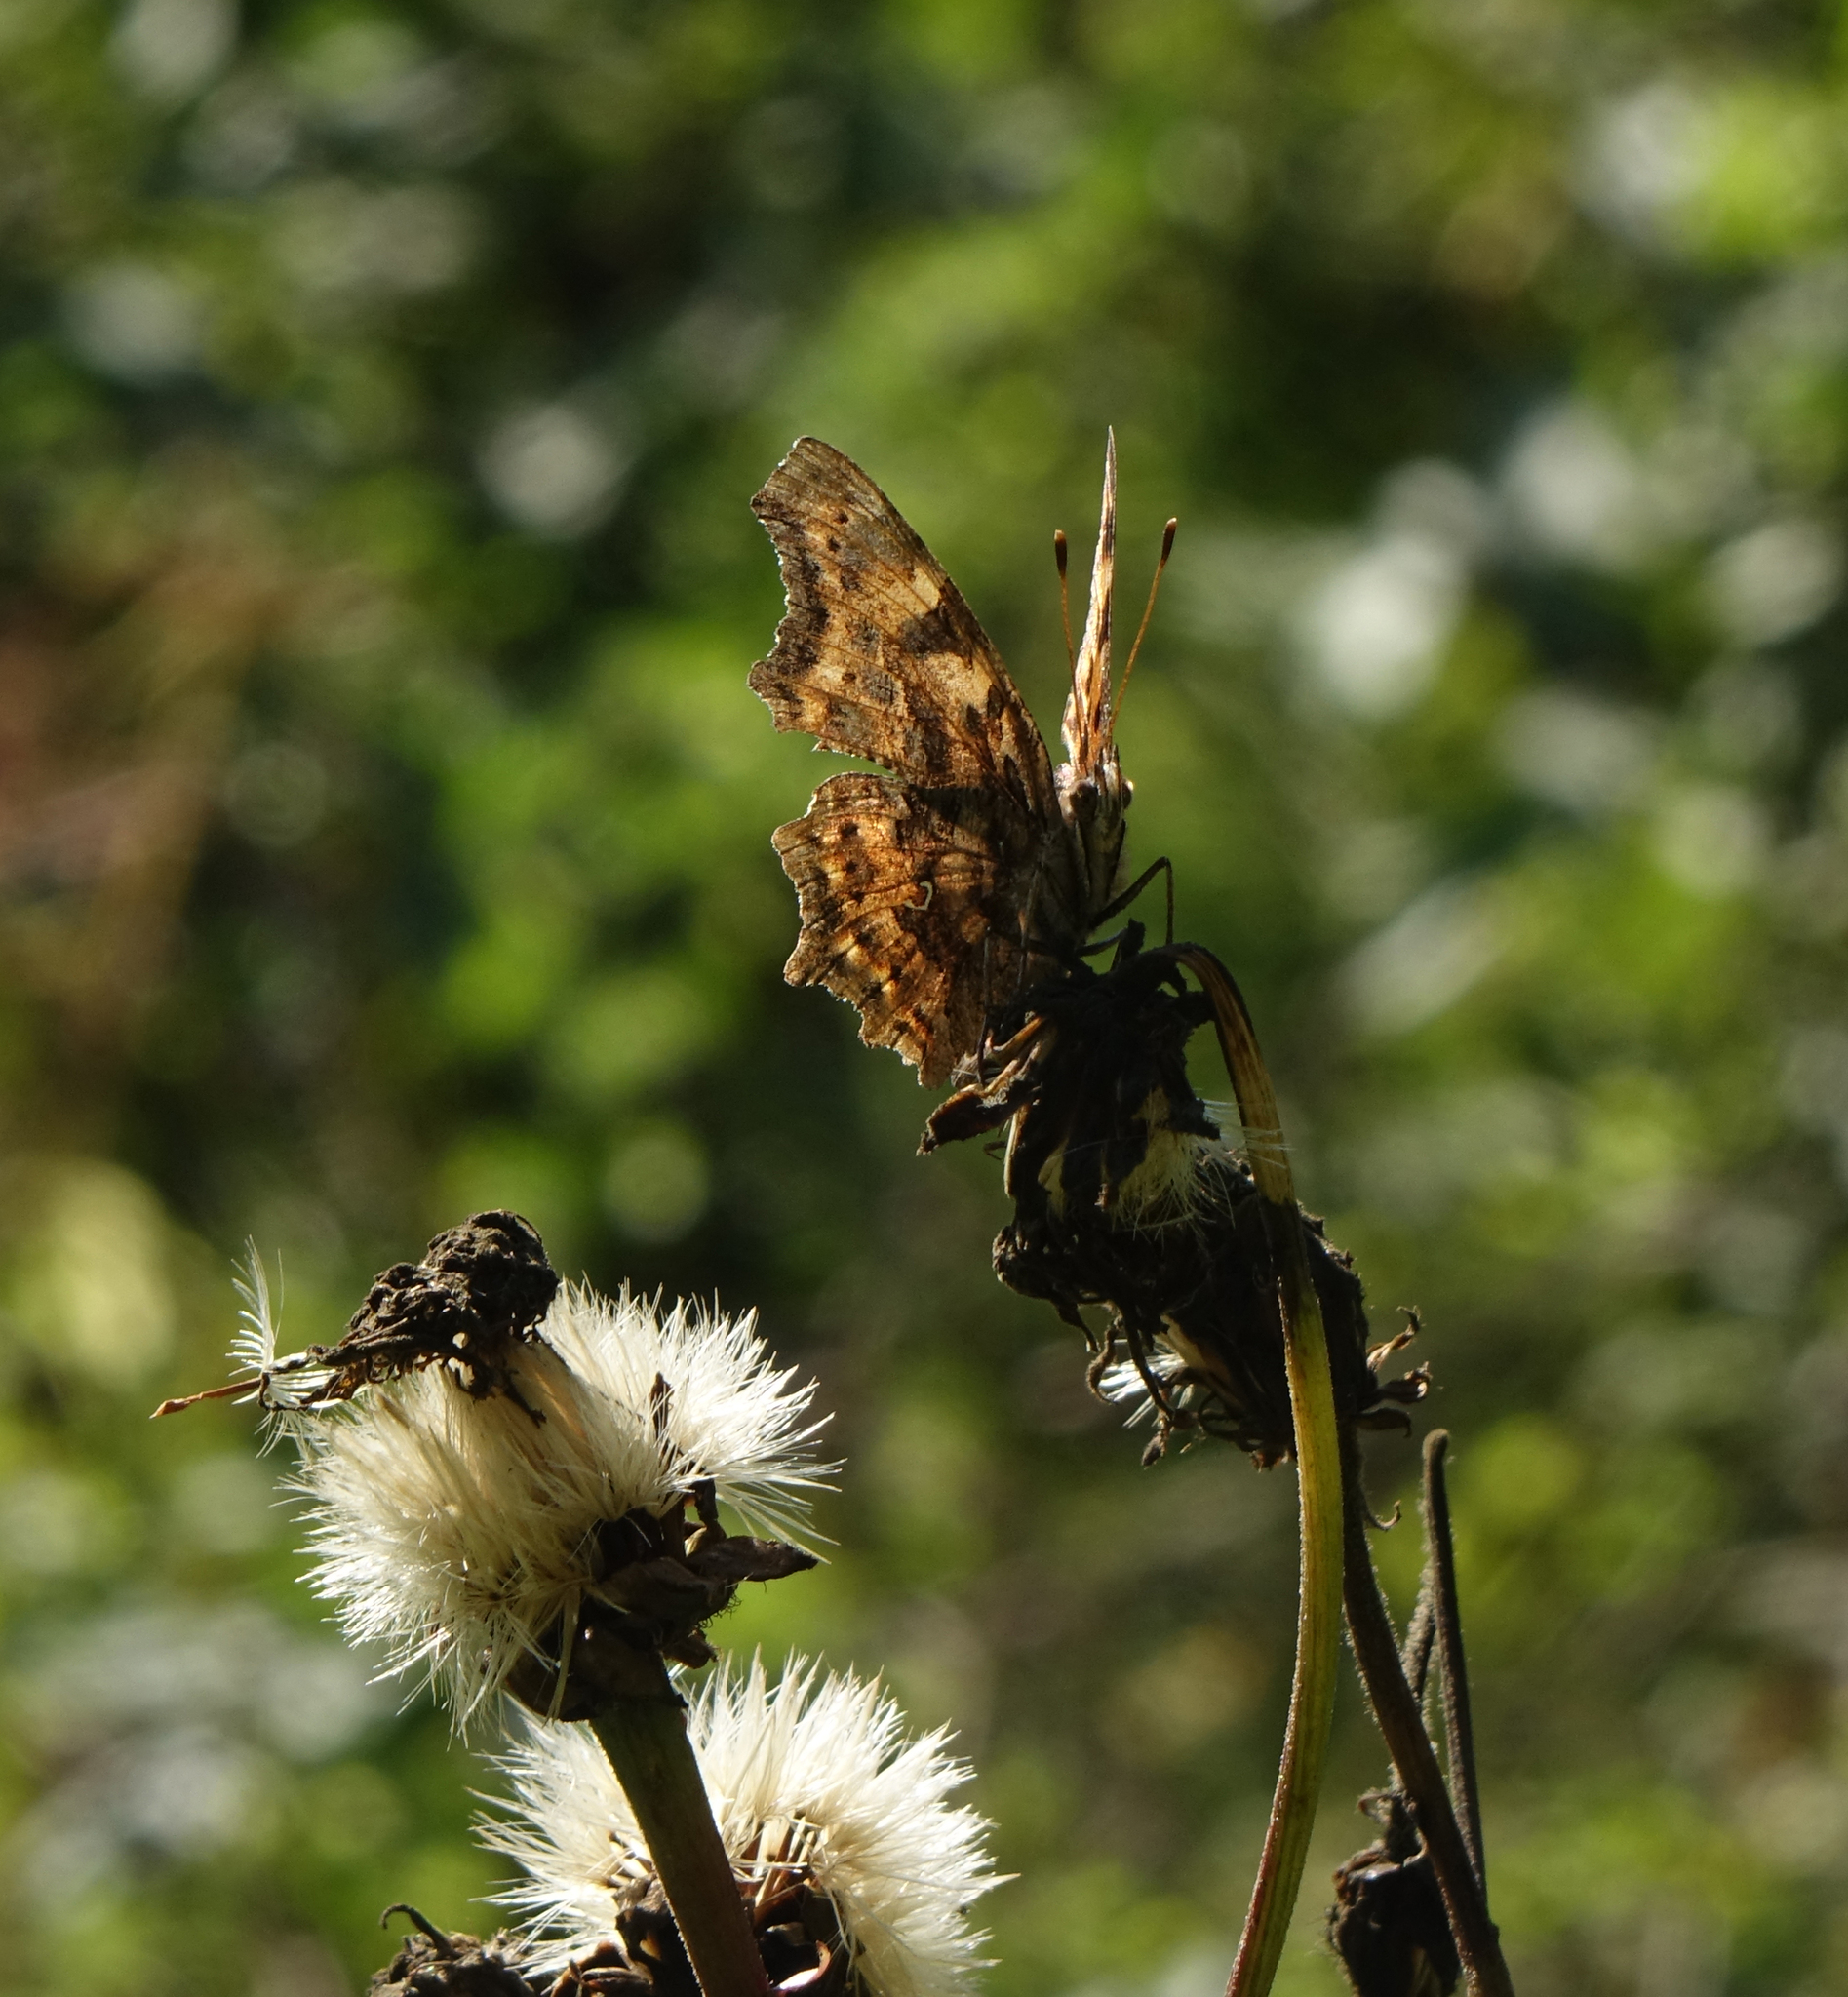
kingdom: Animalia
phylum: Arthropoda
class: Insecta
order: Lepidoptera
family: Nymphalidae
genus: Polygonia
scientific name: Polygonia c-album
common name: Comma
